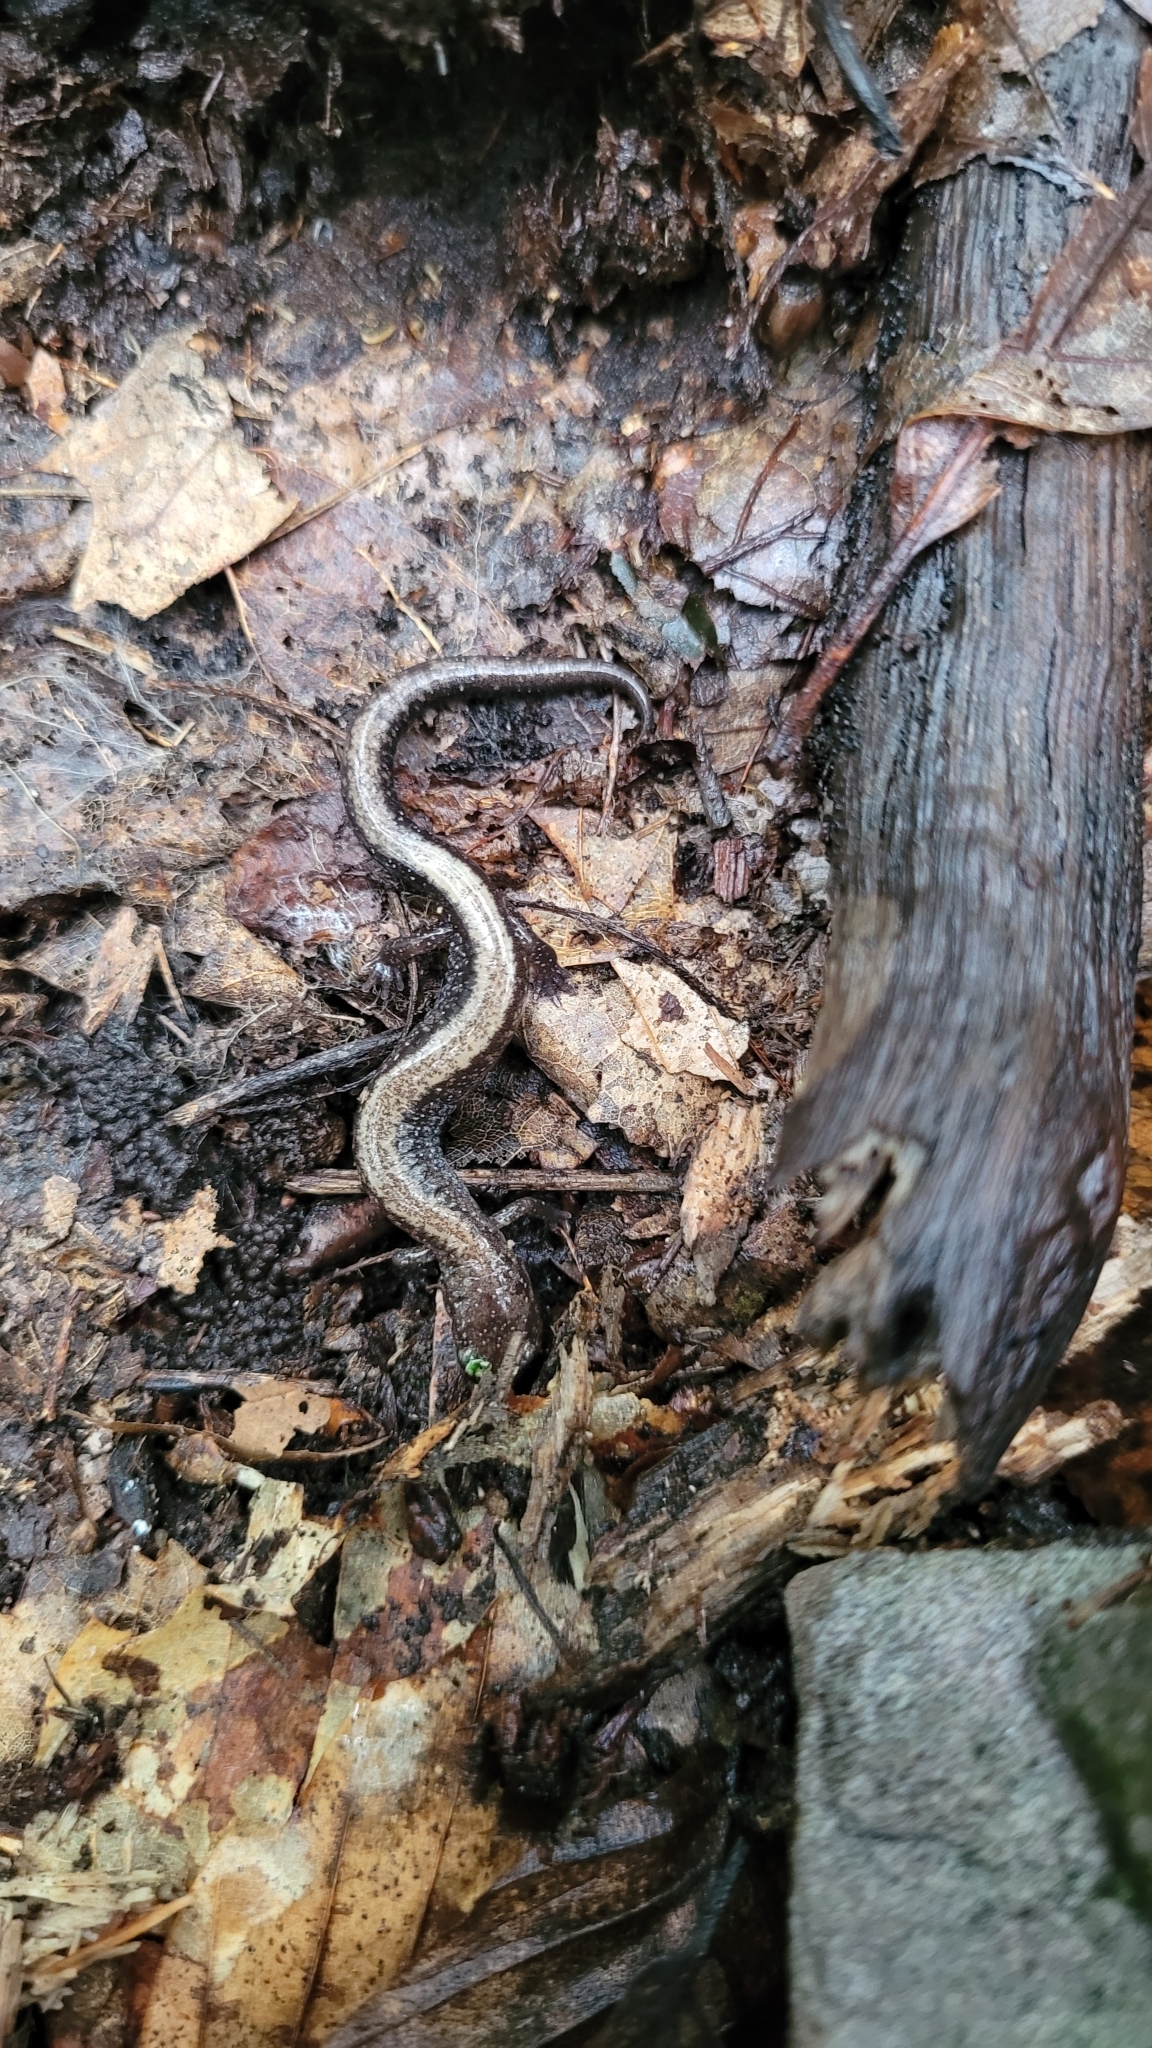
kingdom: Animalia
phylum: Chordata
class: Amphibia
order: Caudata
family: Plethodontidae
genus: Plethodon
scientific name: Plethodon cinereus
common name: Redback salamander
